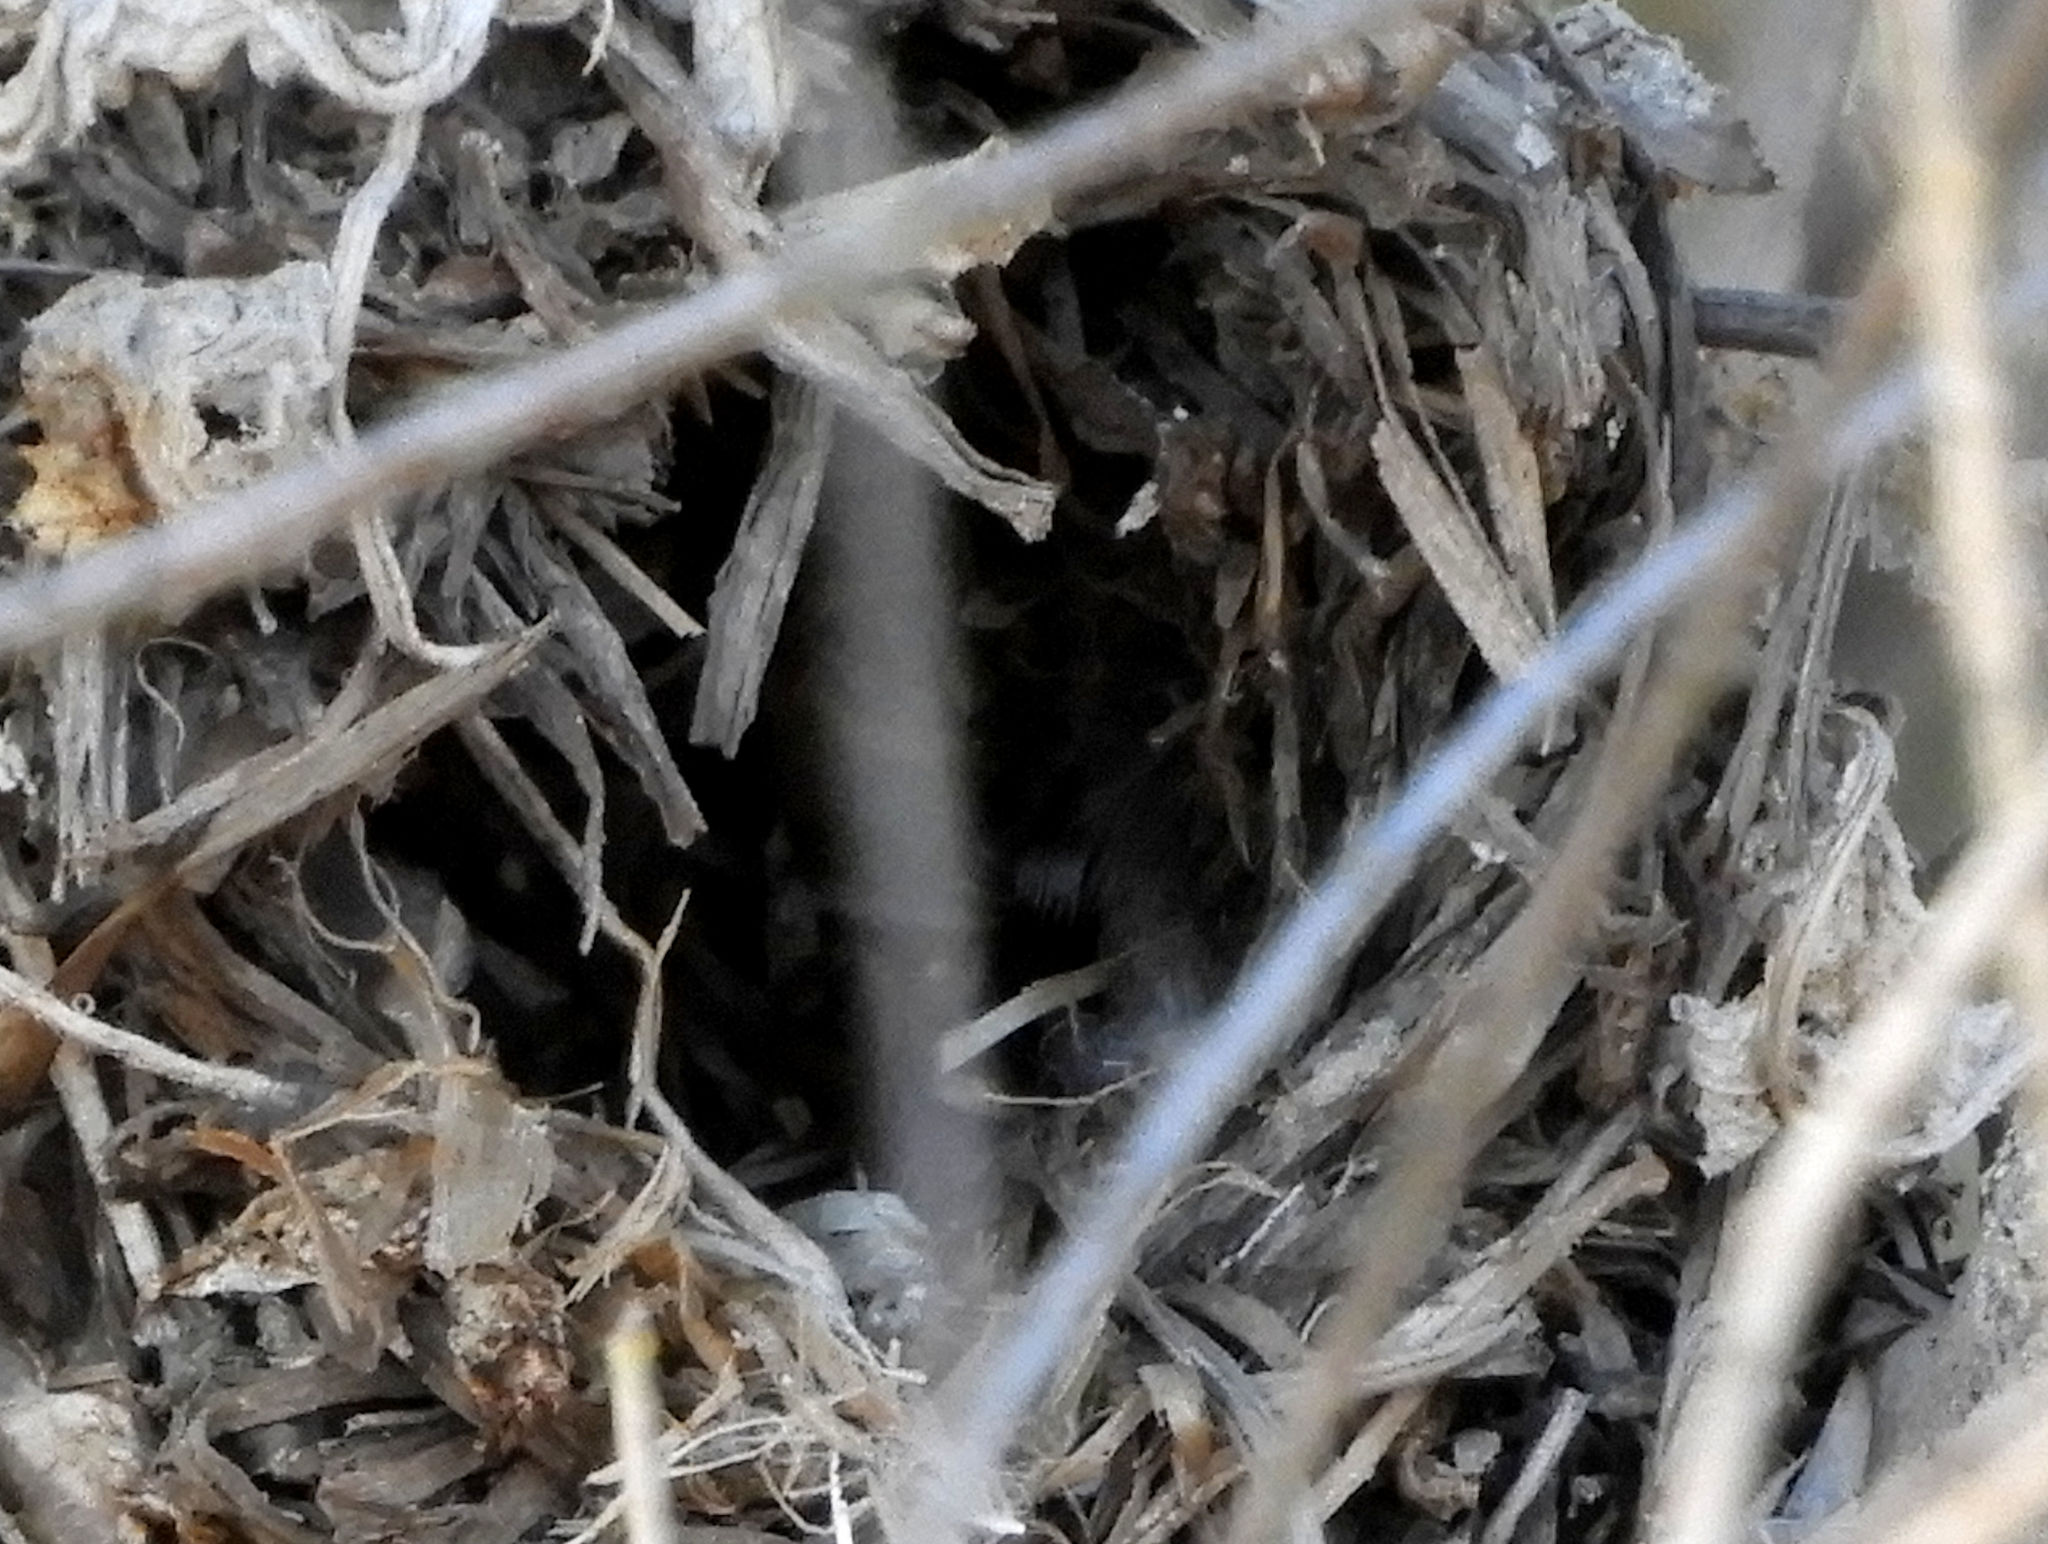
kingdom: Animalia
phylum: Chordata
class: Aves
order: Passeriformes
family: Troglodytidae
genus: Cistothorus
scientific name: Cistothorus palustris
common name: Marsh wren
